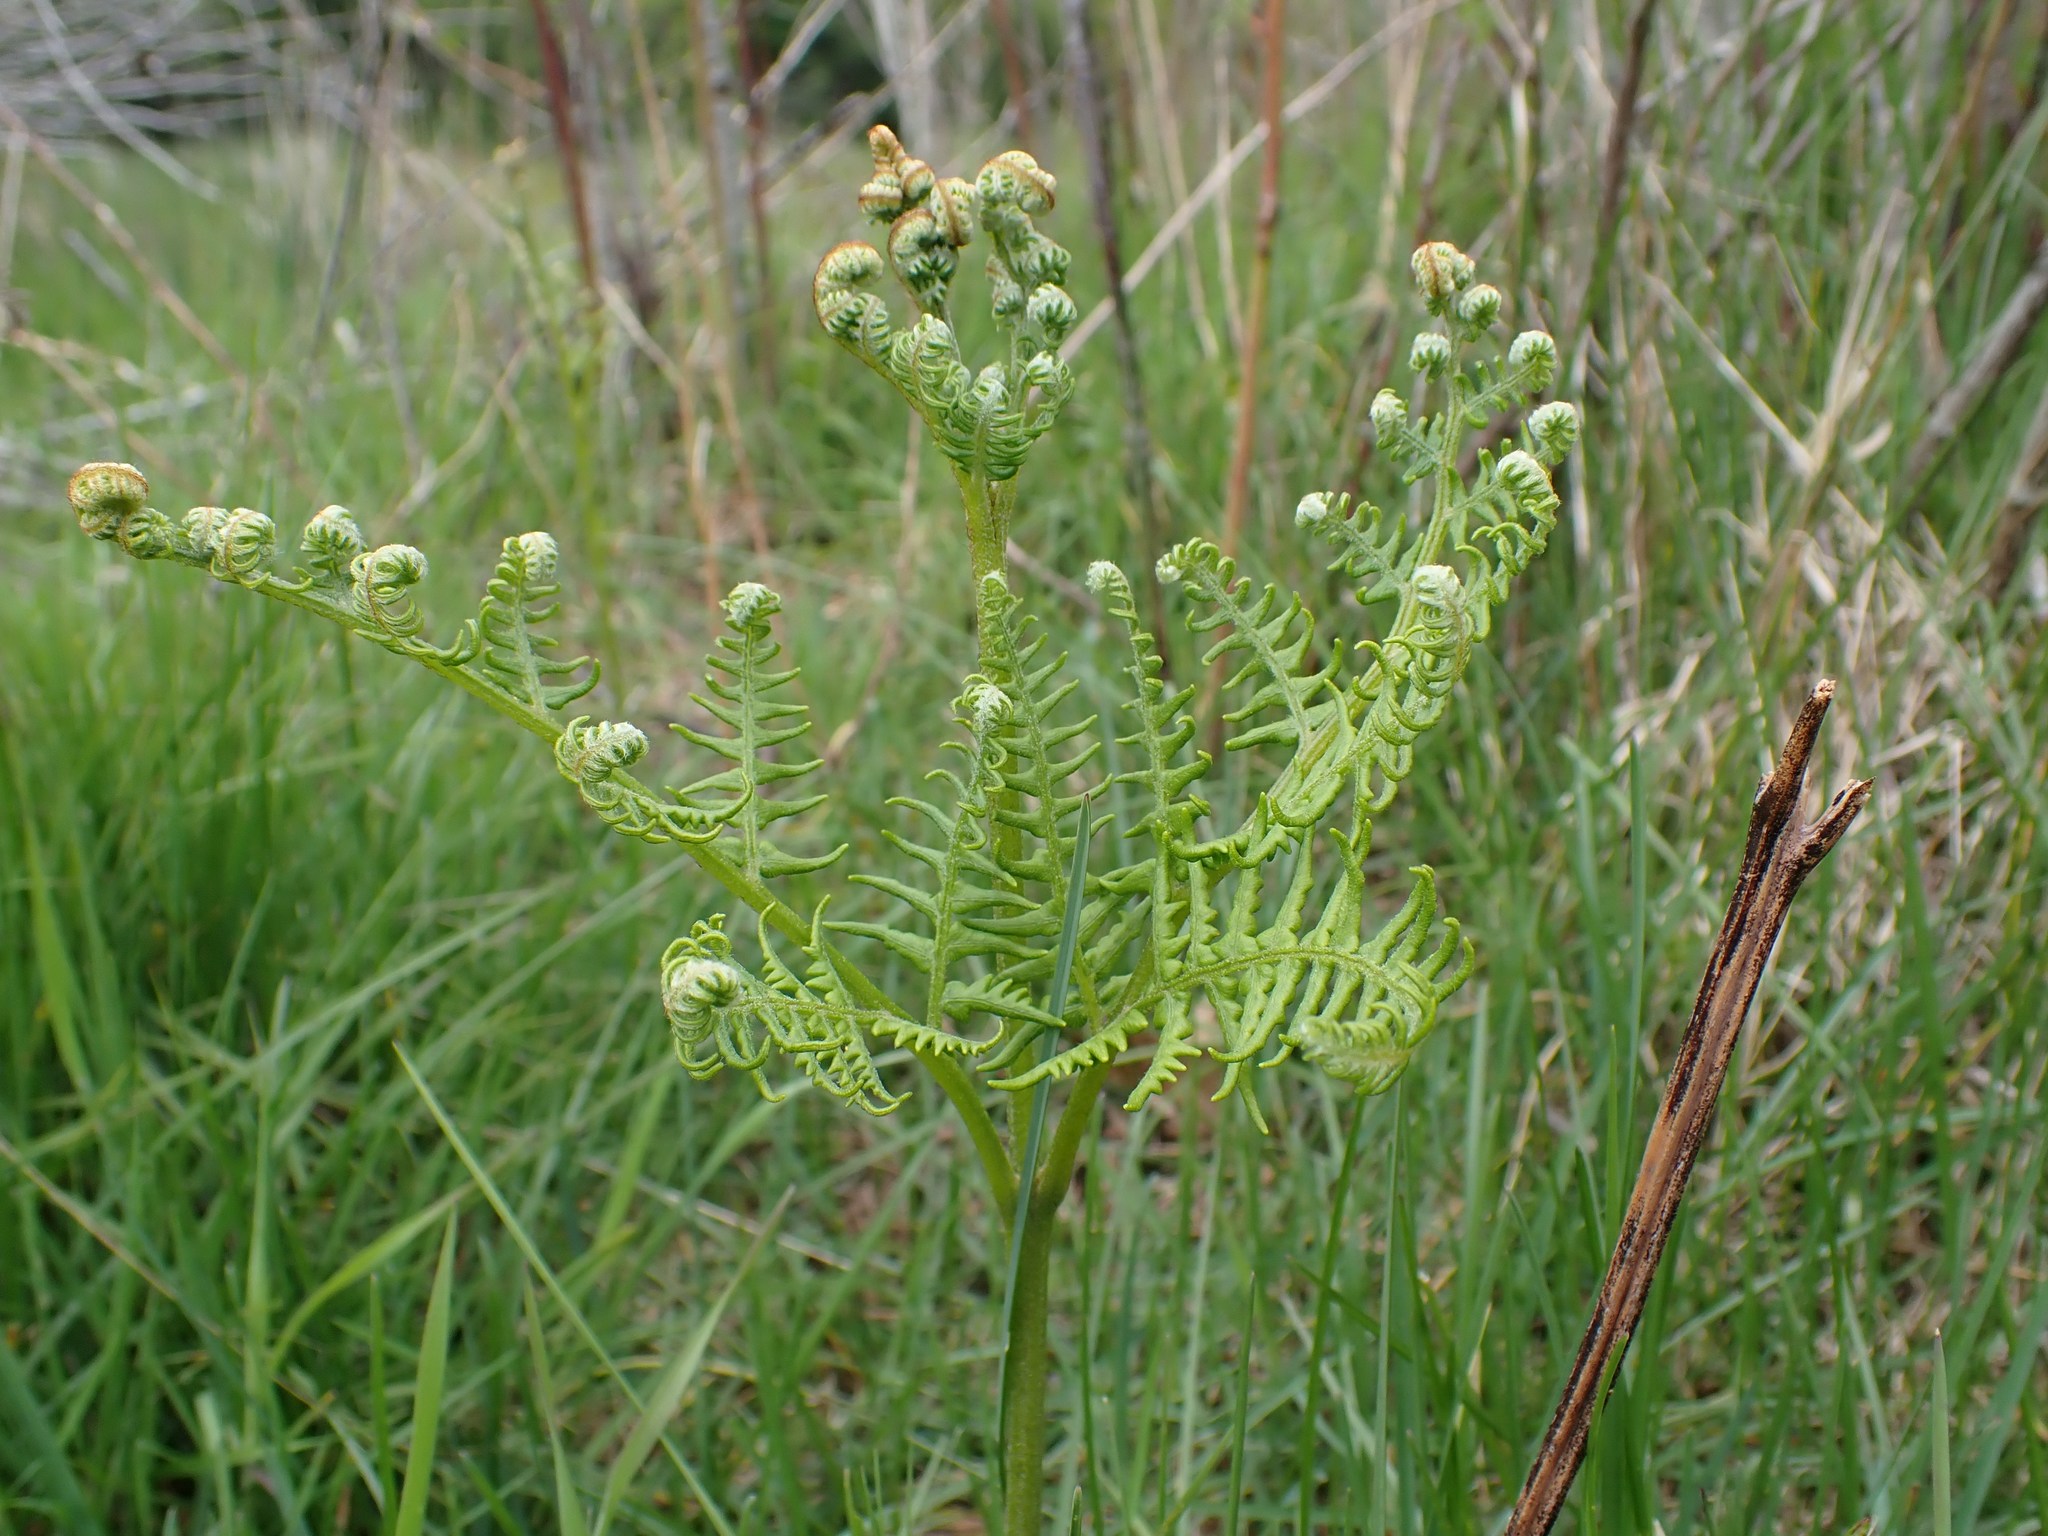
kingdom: Plantae
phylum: Tracheophyta
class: Polypodiopsida
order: Polypodiales
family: Dennstaedtiaceae
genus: Pteridium
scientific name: Pteridium aquilinum
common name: Bracken
